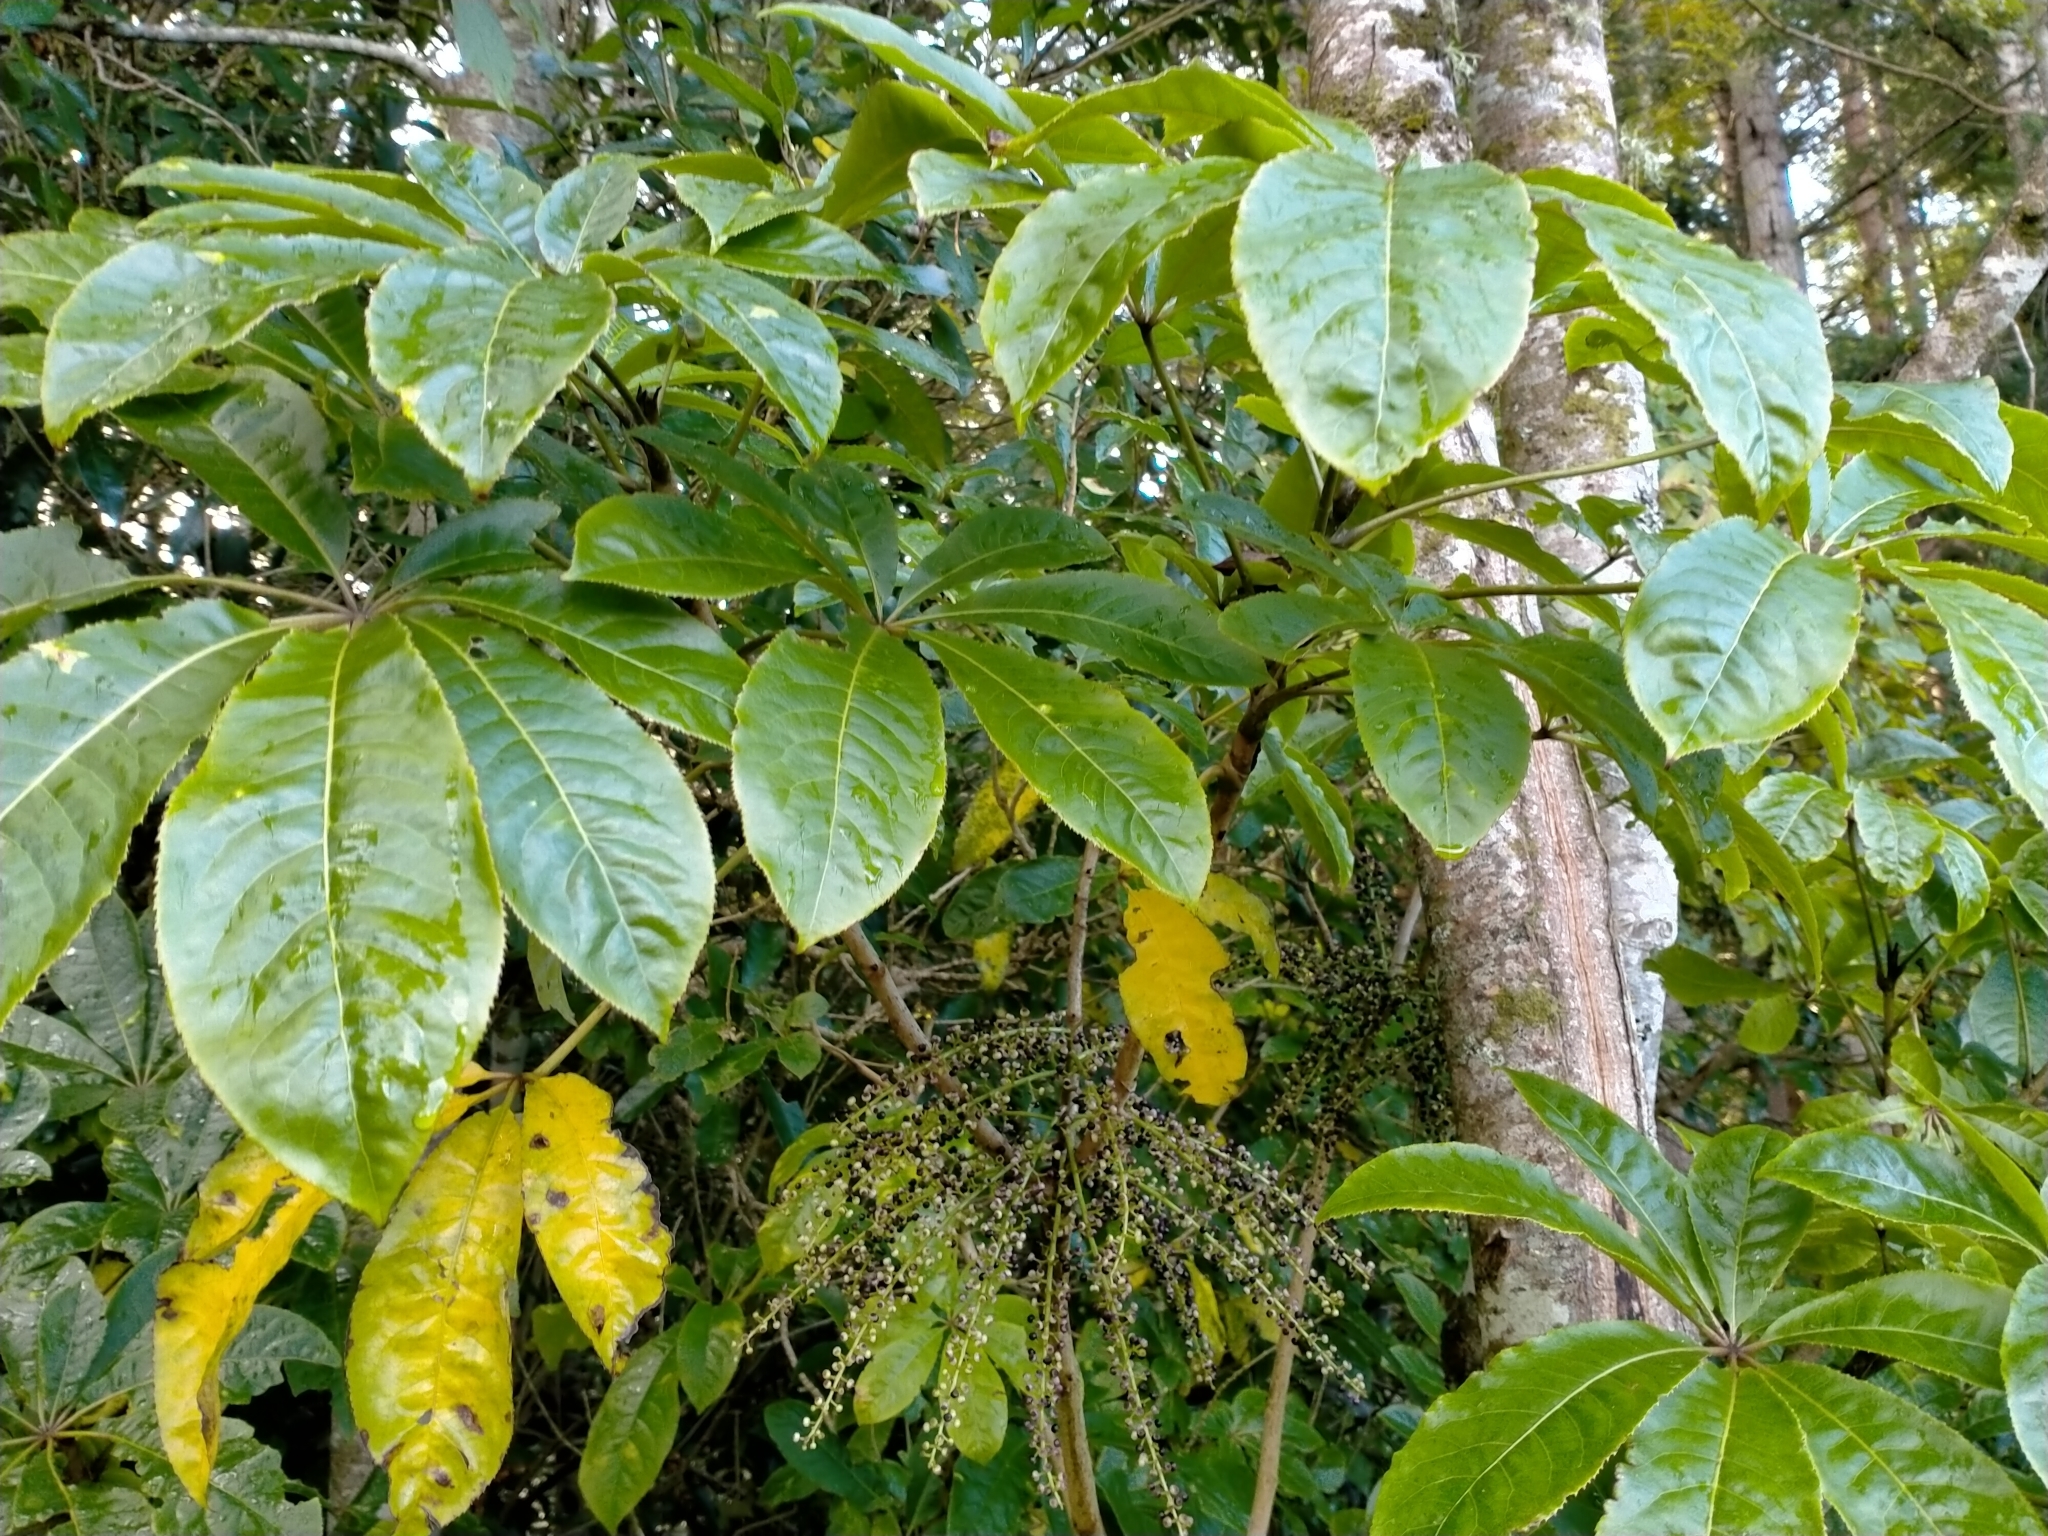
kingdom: Plantae
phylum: Tracheophyta
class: Magnoliopsida
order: Apiales
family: Araliaceae
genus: Schefflera
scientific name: Schefflera digitata
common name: Pate
